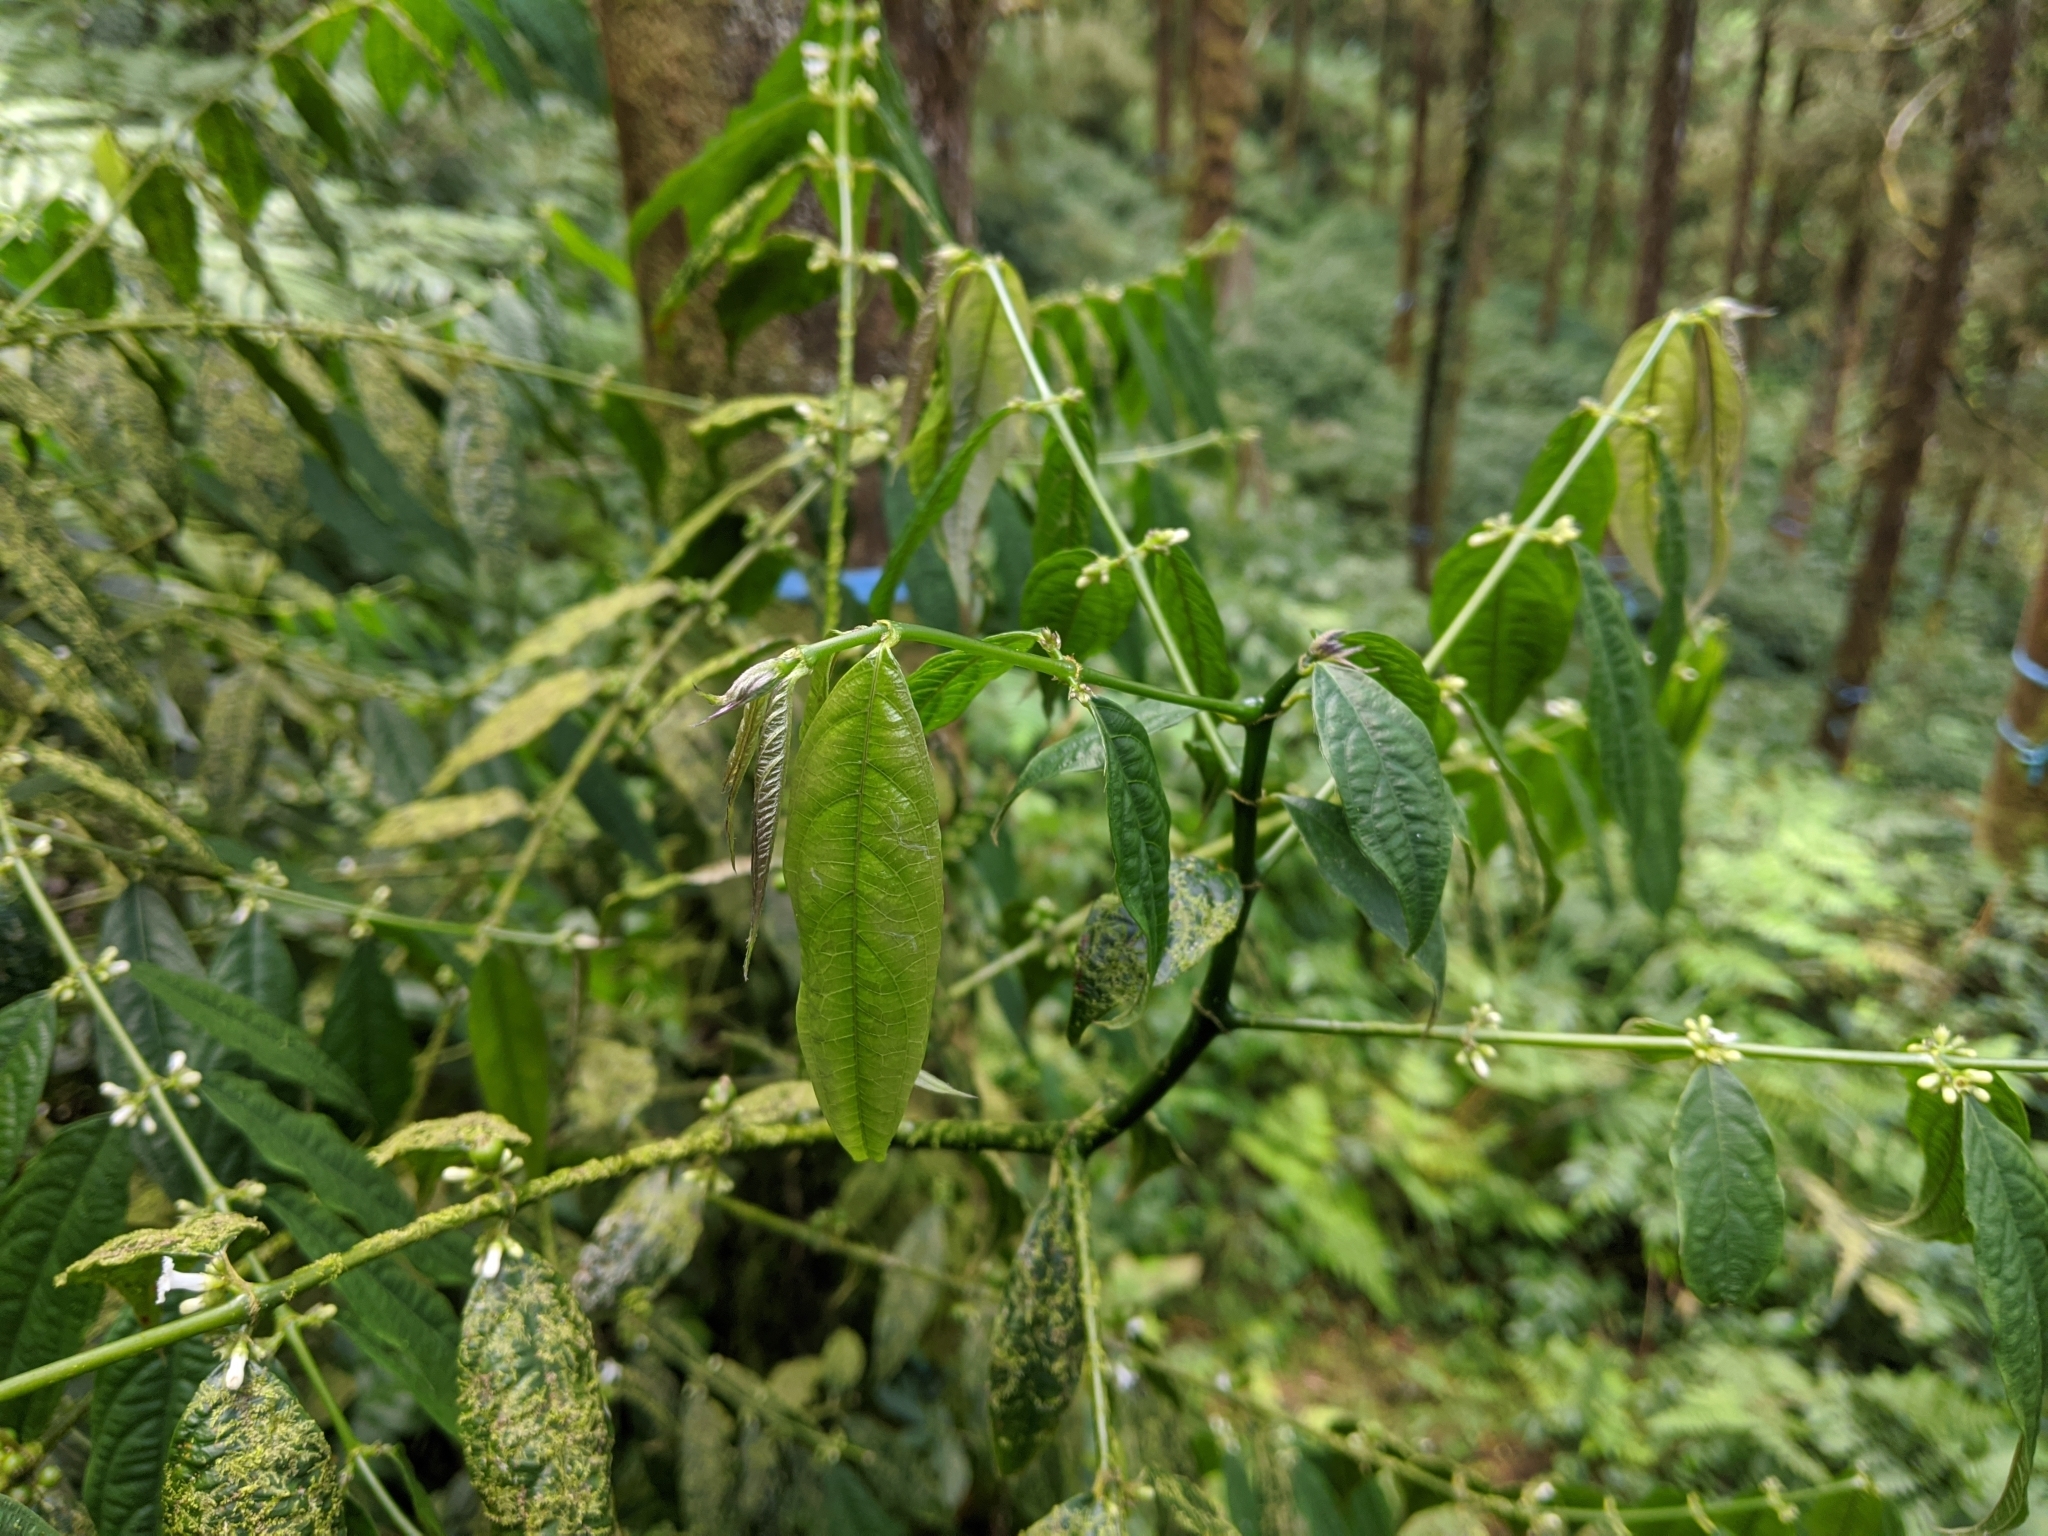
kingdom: Plantae
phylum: Tracheophyta
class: Magnoliopsida
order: Gentianales
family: Rubiaceae
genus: Lasianthus
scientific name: Lasianthus micranthus
